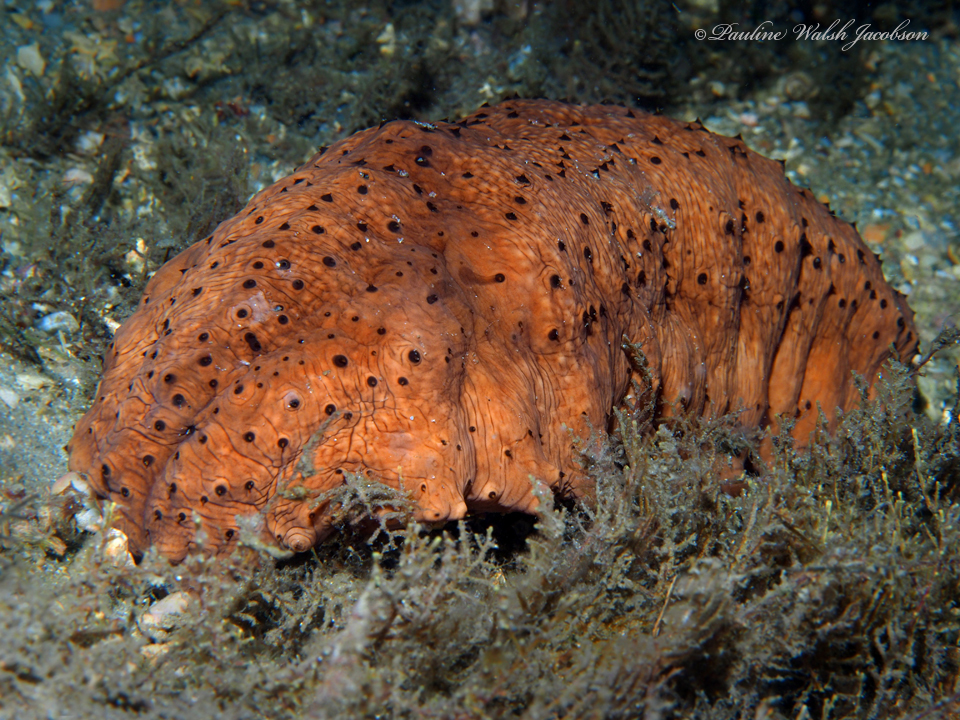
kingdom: Animalia
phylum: Echinodermata
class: Holothuroidea
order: Synallactida
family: Stichopodidae
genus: Isostichopus
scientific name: Isostichopus badionotus
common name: Chocolate chip cucumber
